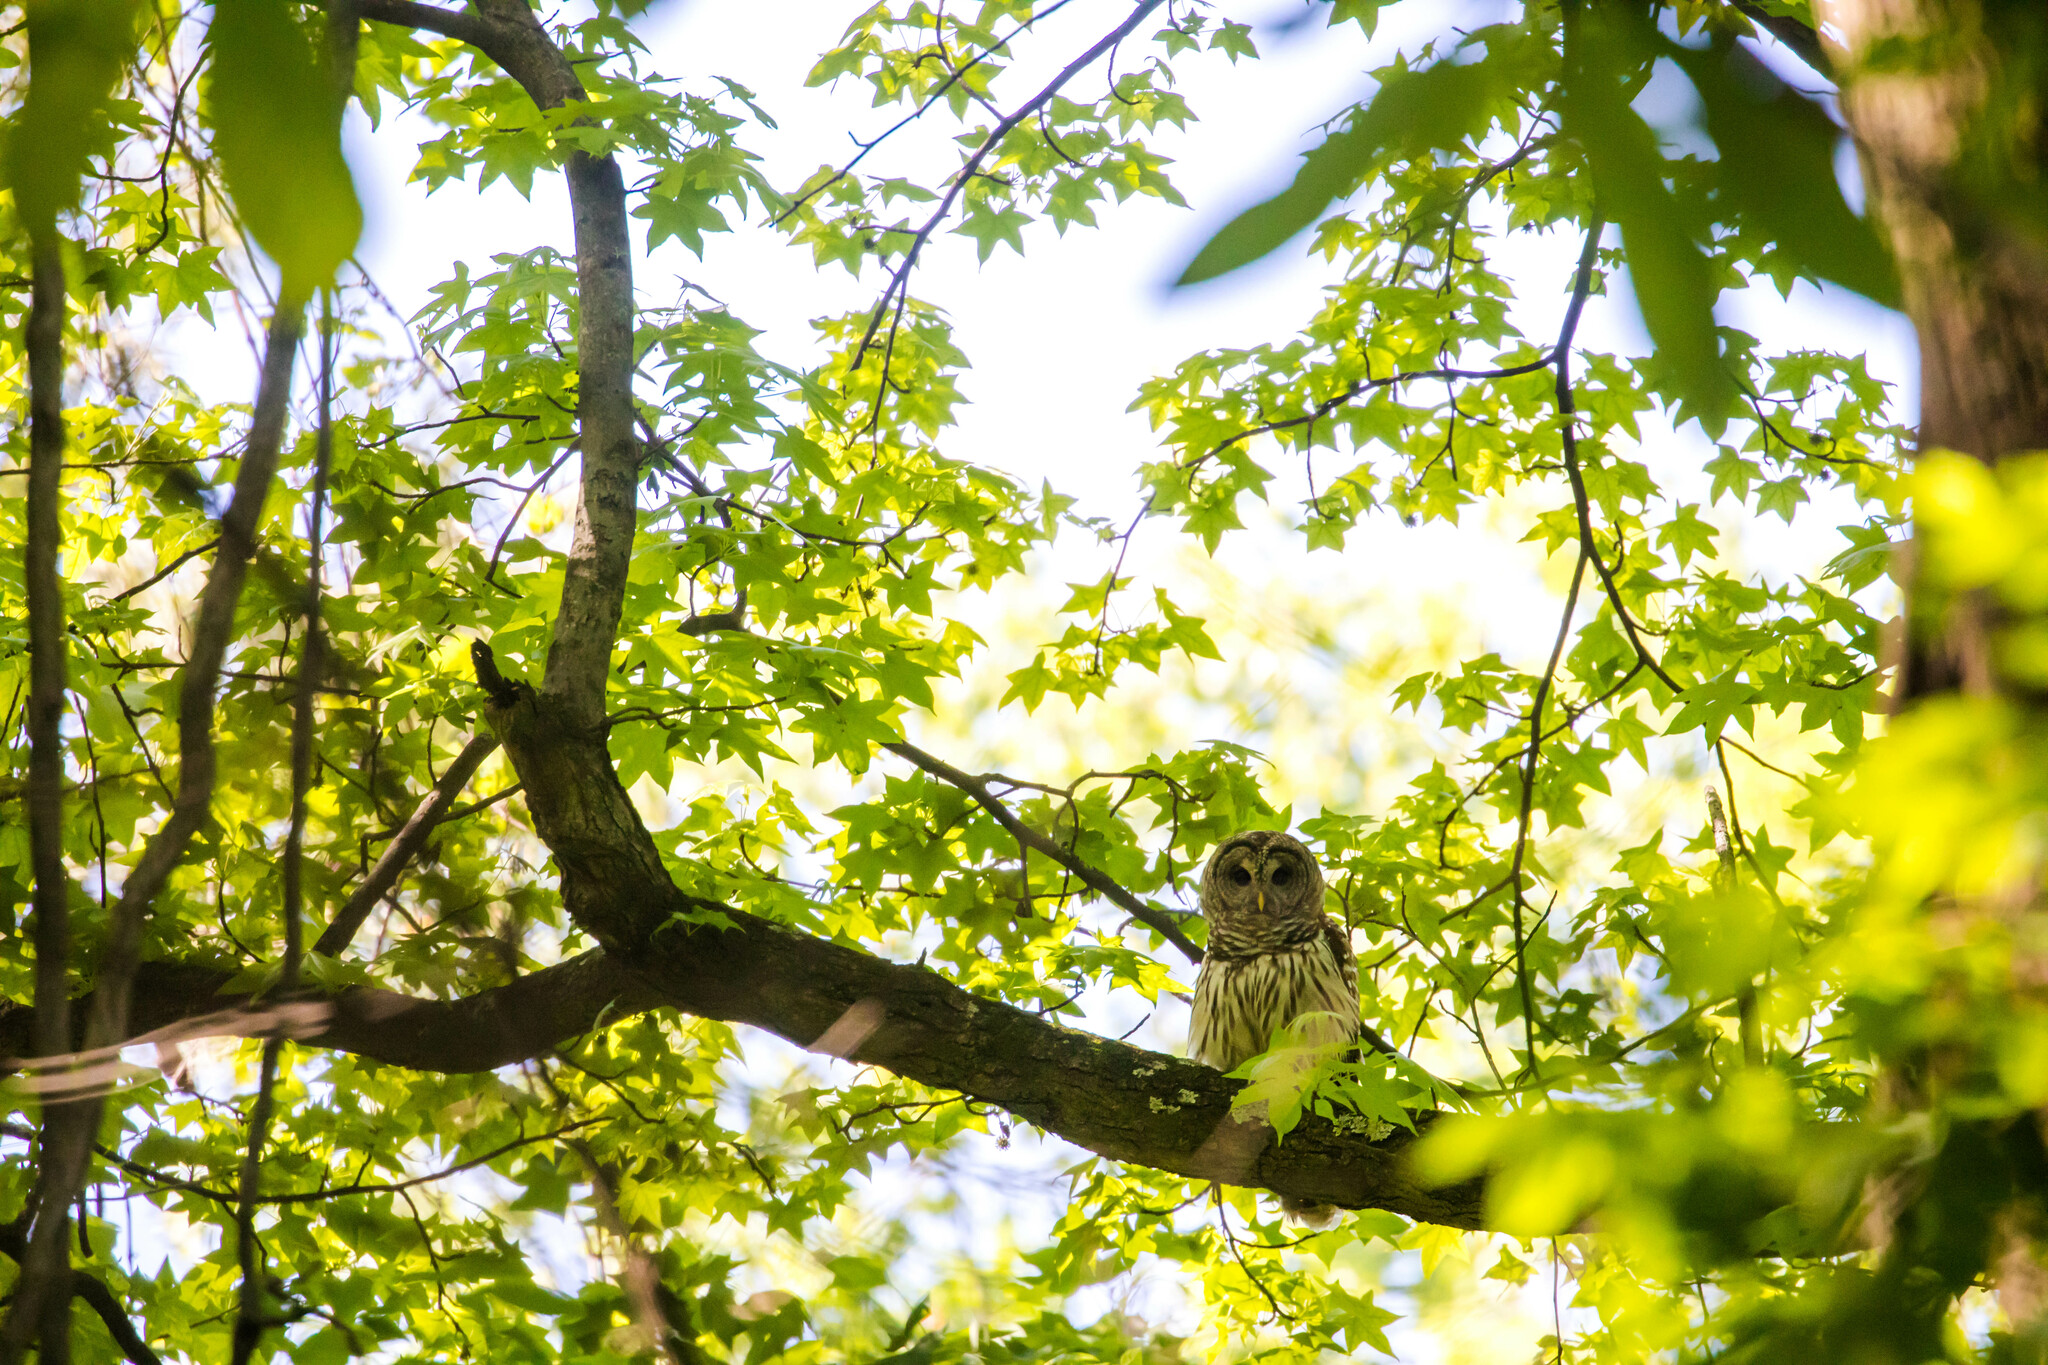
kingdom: Animalia
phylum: Chordata
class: Aves
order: Strigiformes
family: Strigidae
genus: Strix
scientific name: Strix varia
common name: Barred owl
